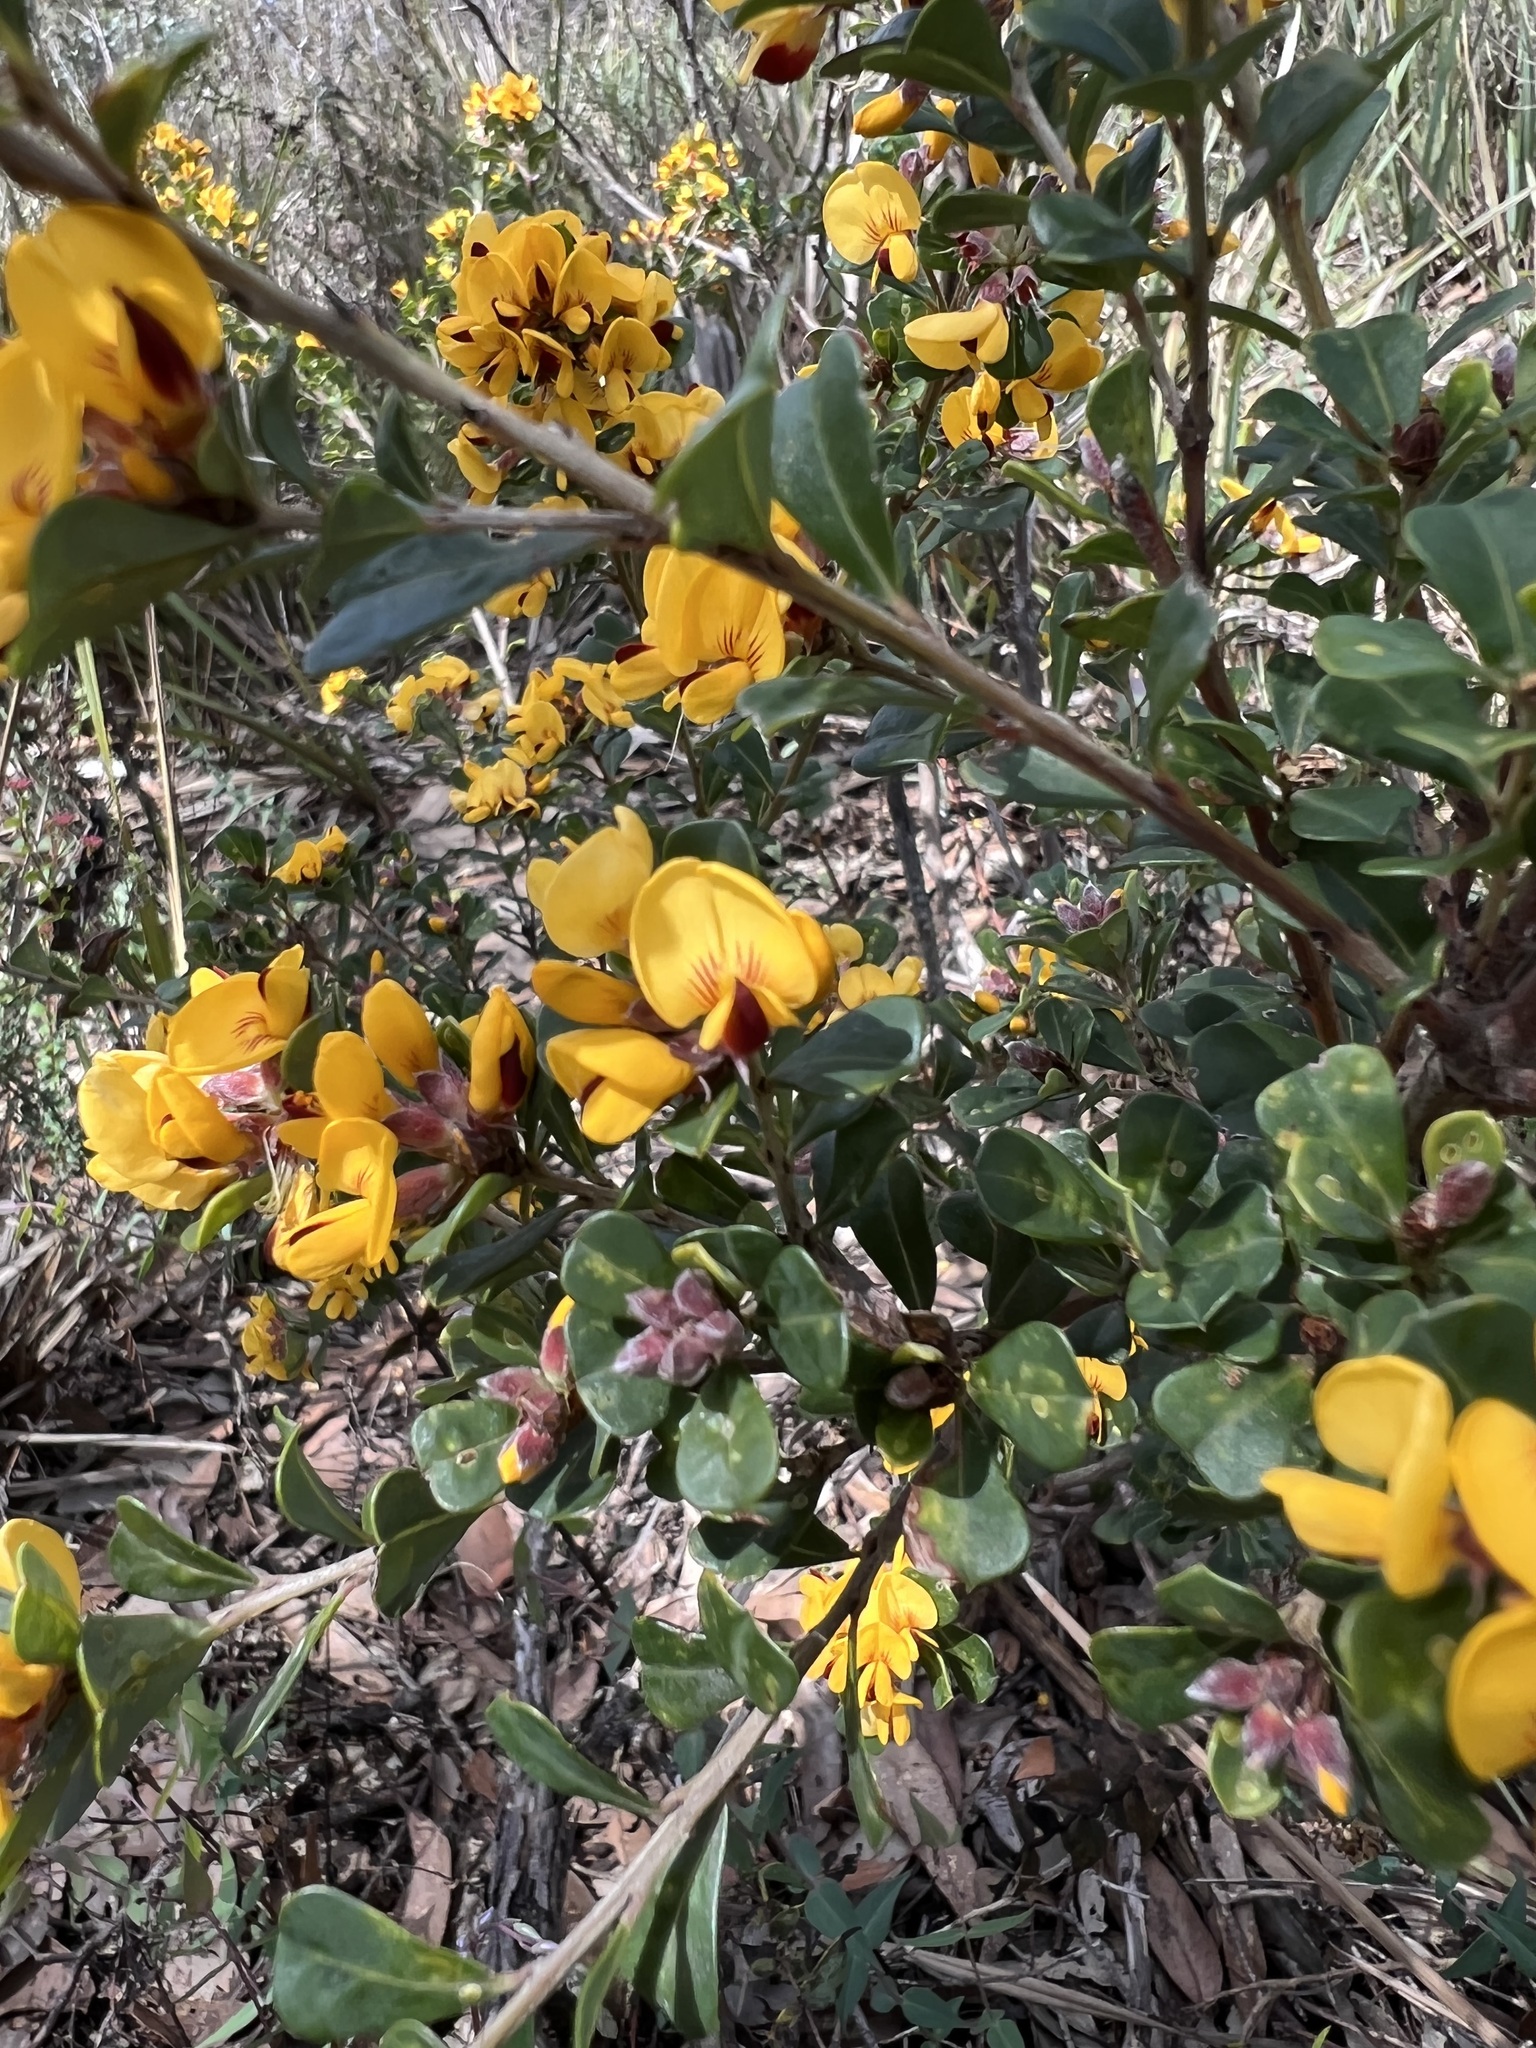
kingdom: Plantae
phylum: Tracheophyta
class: Magnoliopsida
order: Fabales
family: Fabaceae
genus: Pultenaea
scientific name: Pultenaea daphnoides
